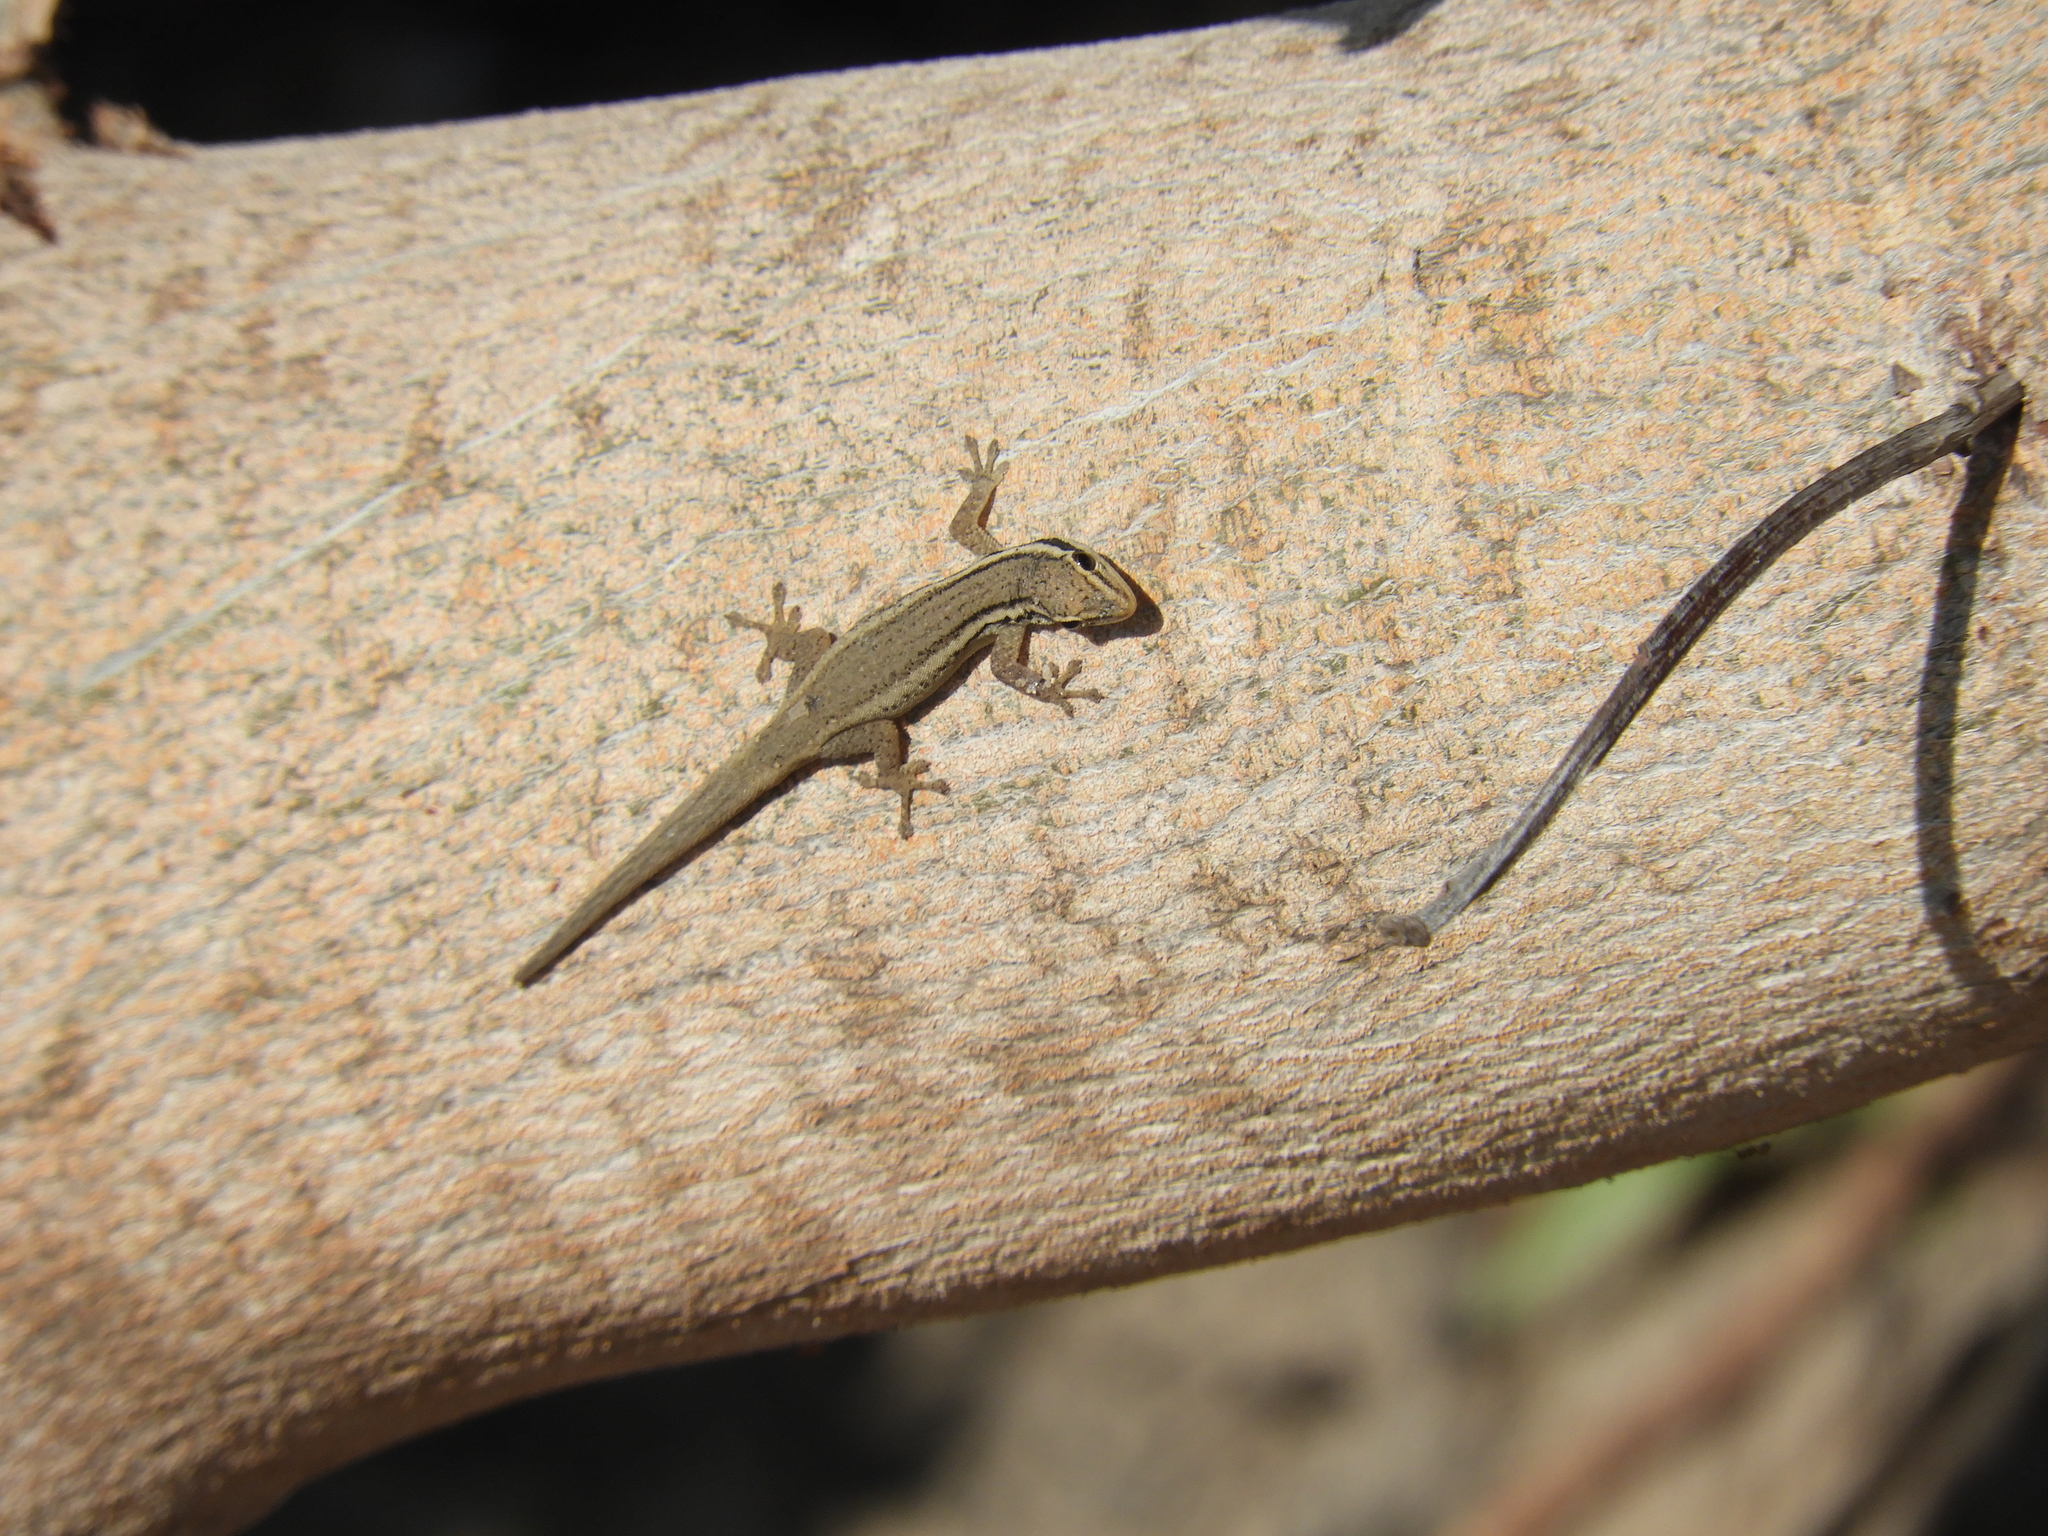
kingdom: Animalia
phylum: Chordata
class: Squamata
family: Gekkonidae
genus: Lygodactylus
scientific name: Lygodactylus capensis
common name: Cape dwarf gecko
